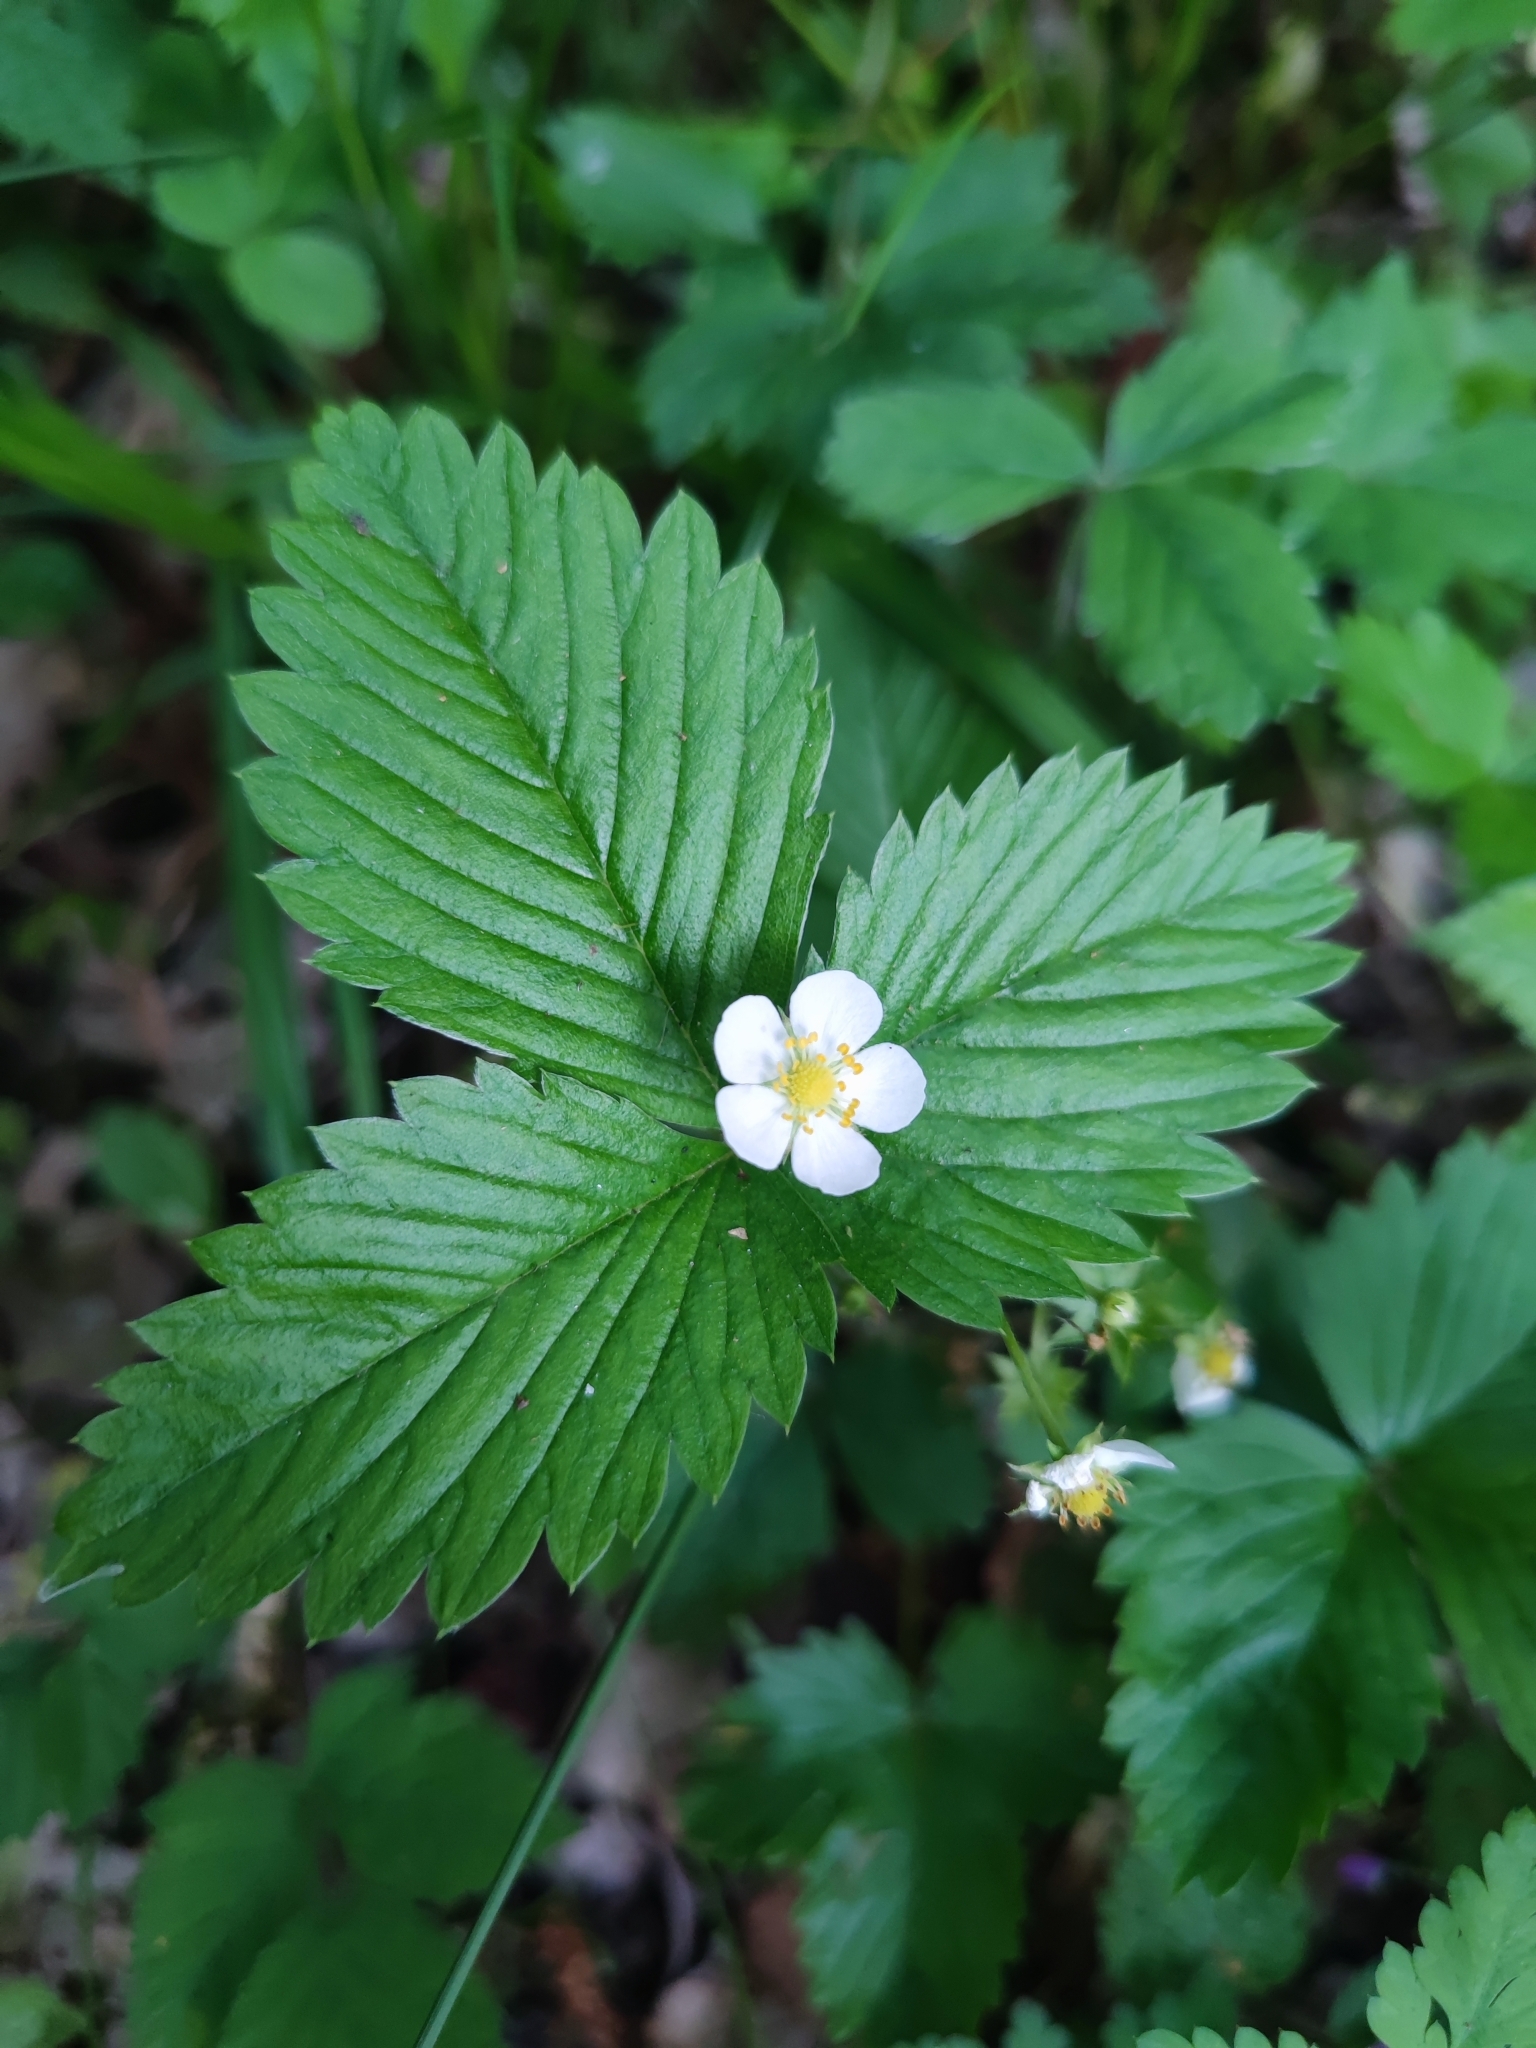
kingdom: Plantae
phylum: Tracheophyta
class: Magnoliopsida
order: Rosales
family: Rosaceae
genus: Fragaria
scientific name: Fragaria vesca
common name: Wild strawberry
